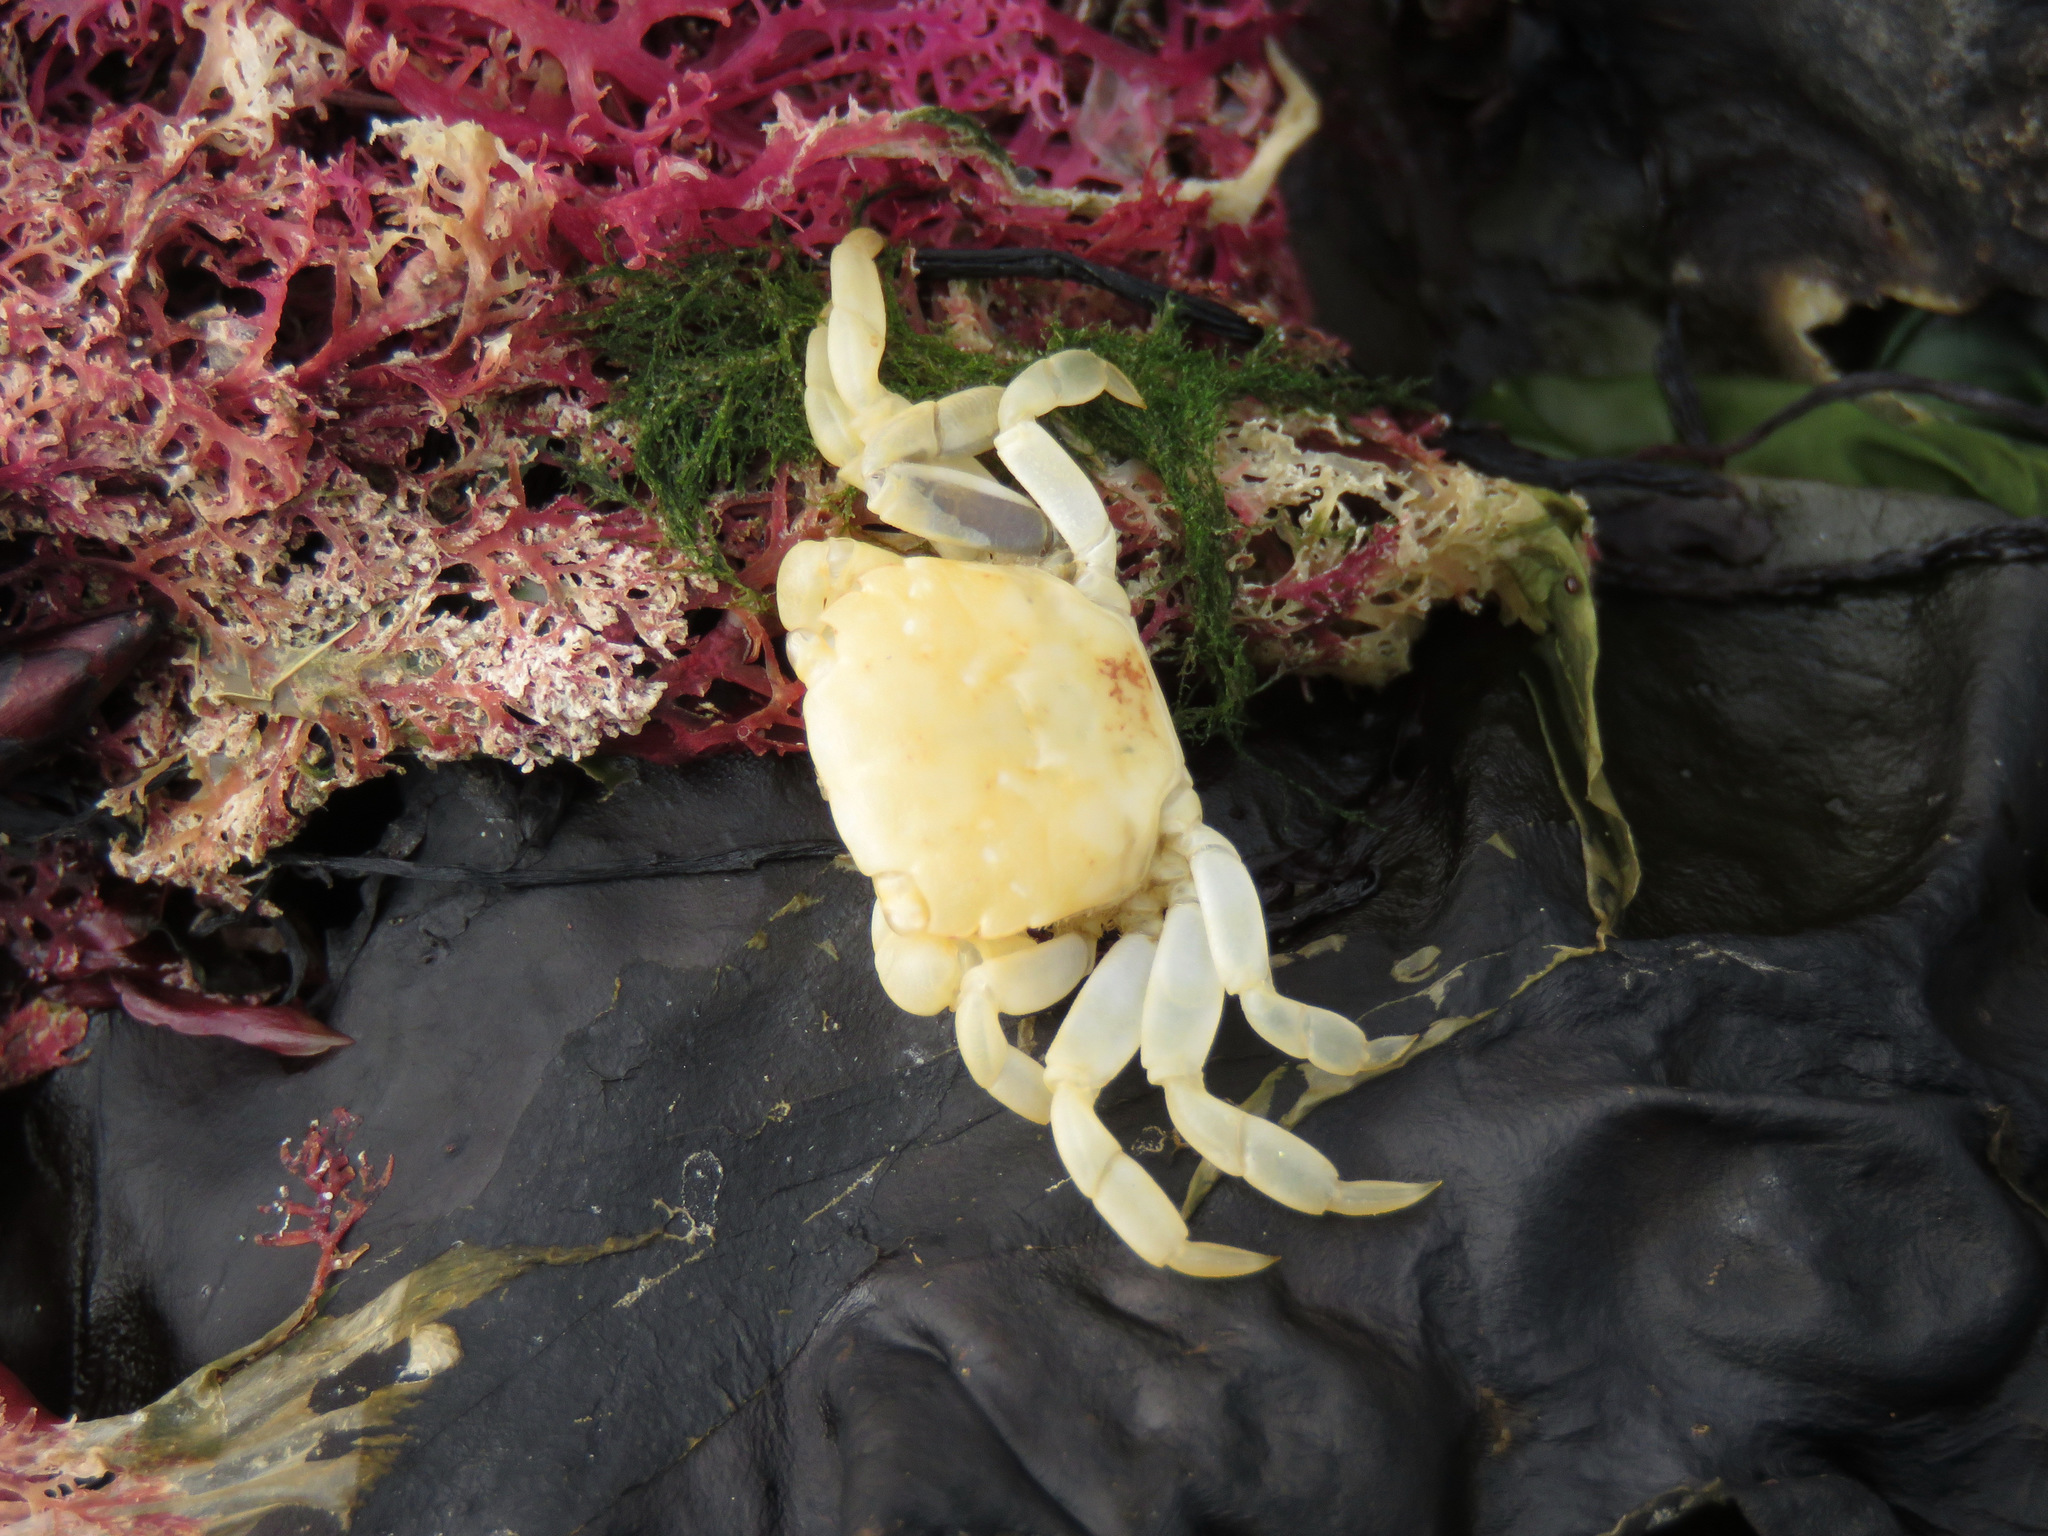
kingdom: Animalia
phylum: Arthropoda
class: Malacostraca
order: Decapoda
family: Varunidae
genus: Hemigrapsus
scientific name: Hemigrapsus nudus
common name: Purple shore crab
